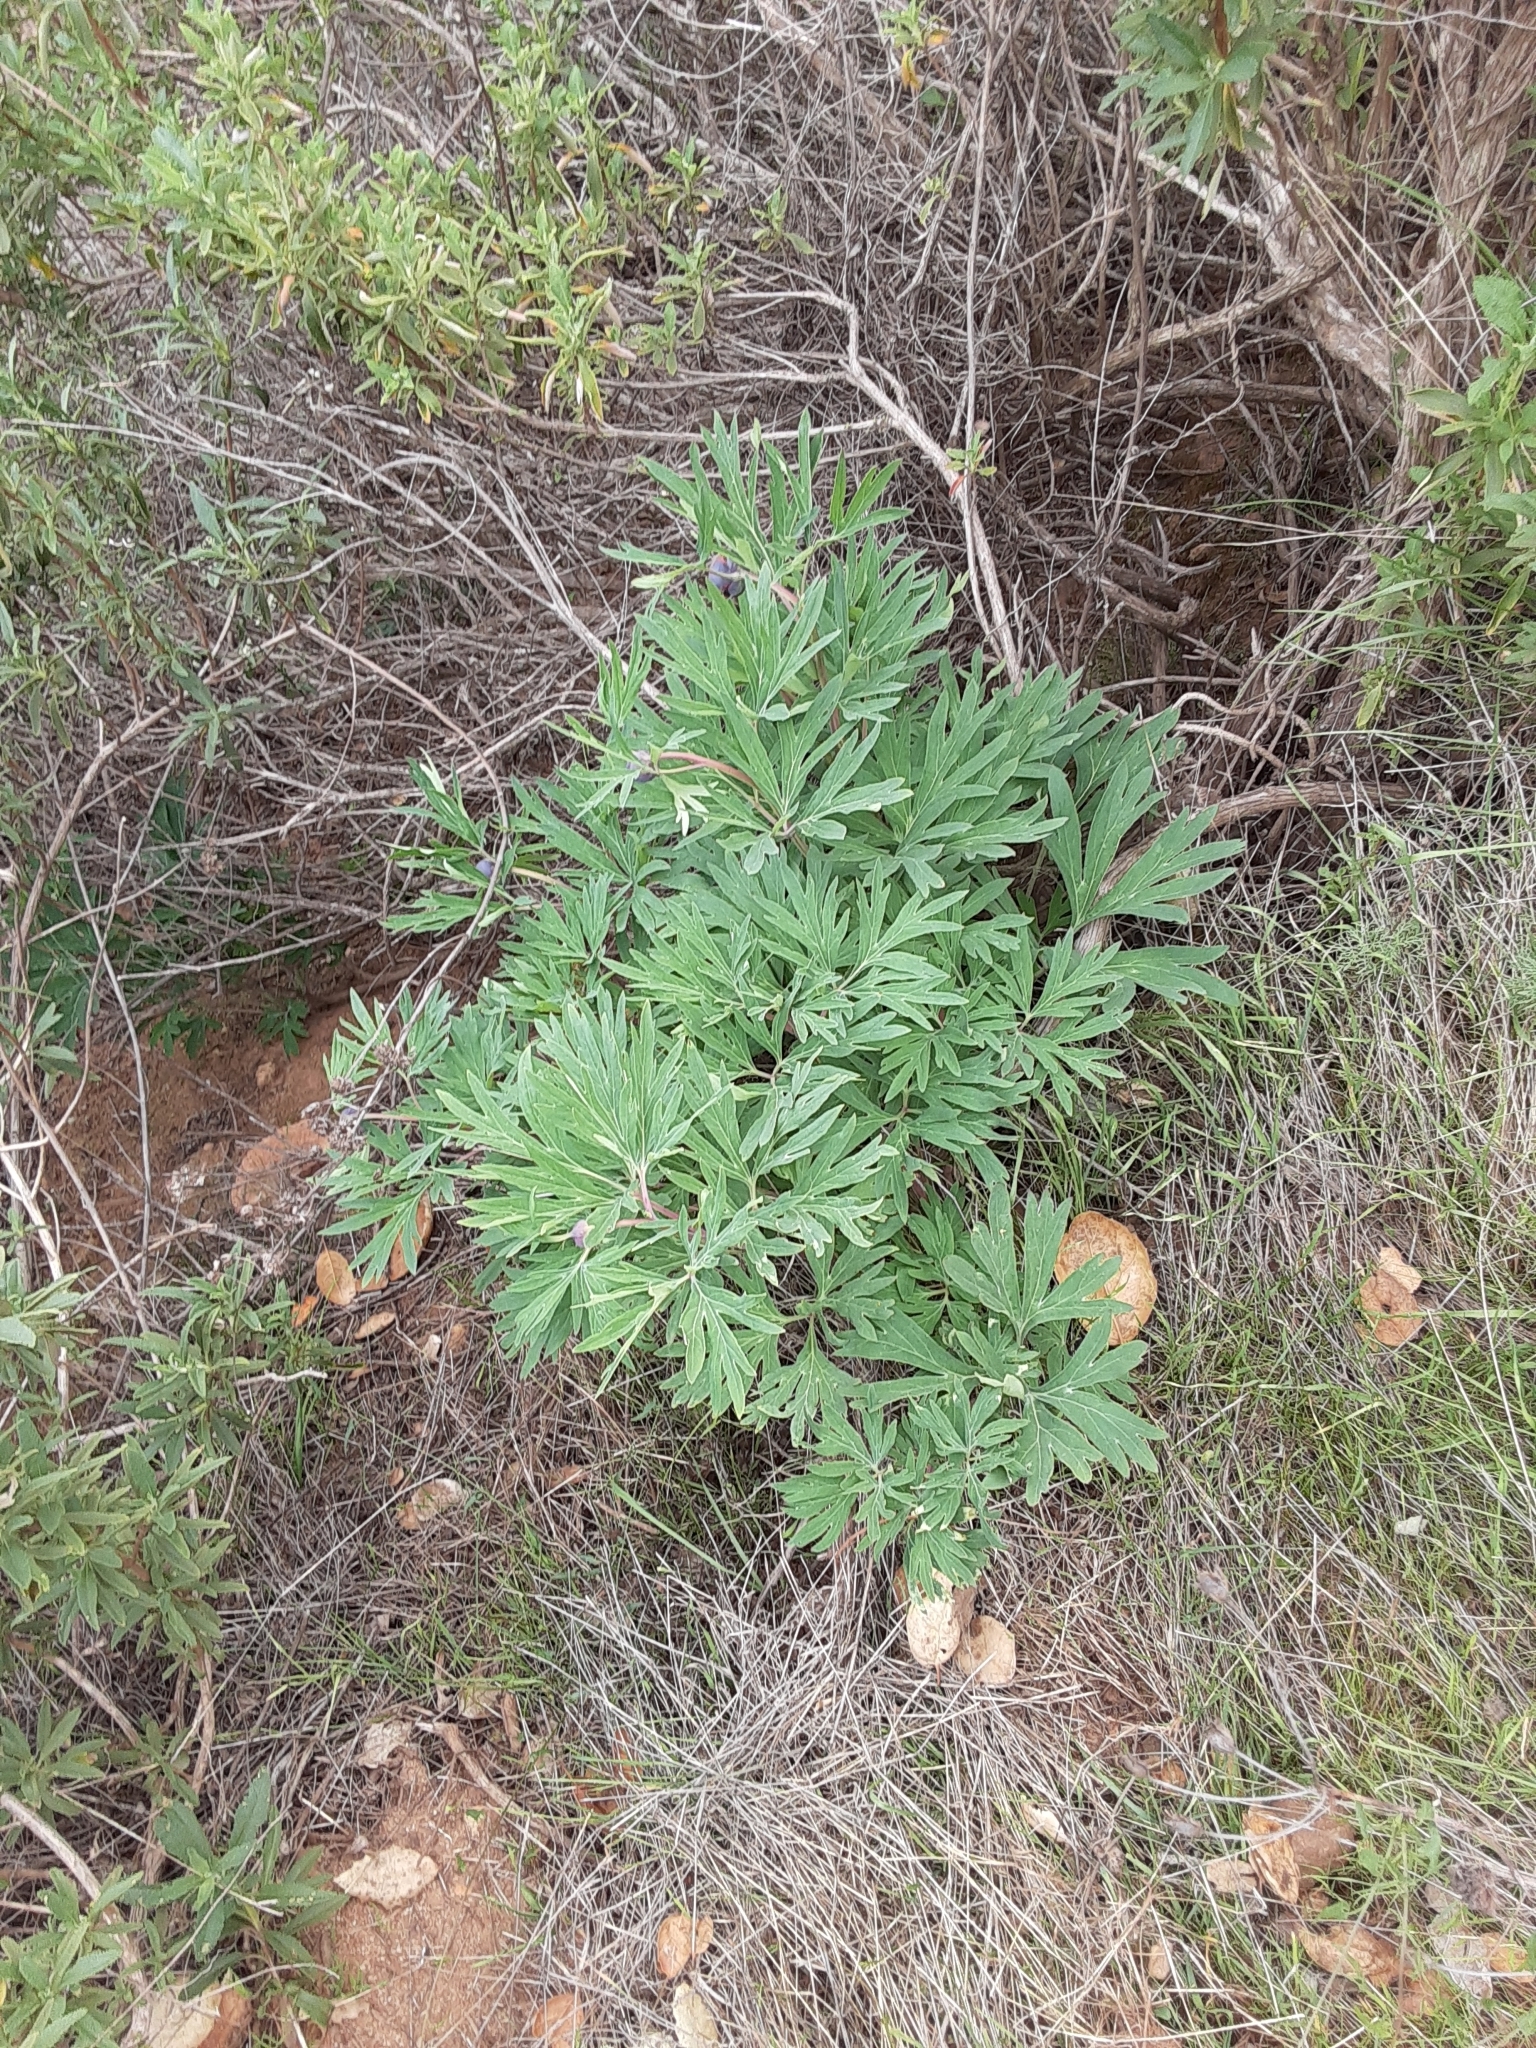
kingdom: Plantae
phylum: Tracheophyta
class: Magnoliopsida
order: Saxifragales
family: Paeoniaceae
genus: Paeonia
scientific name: Paeonia californica
